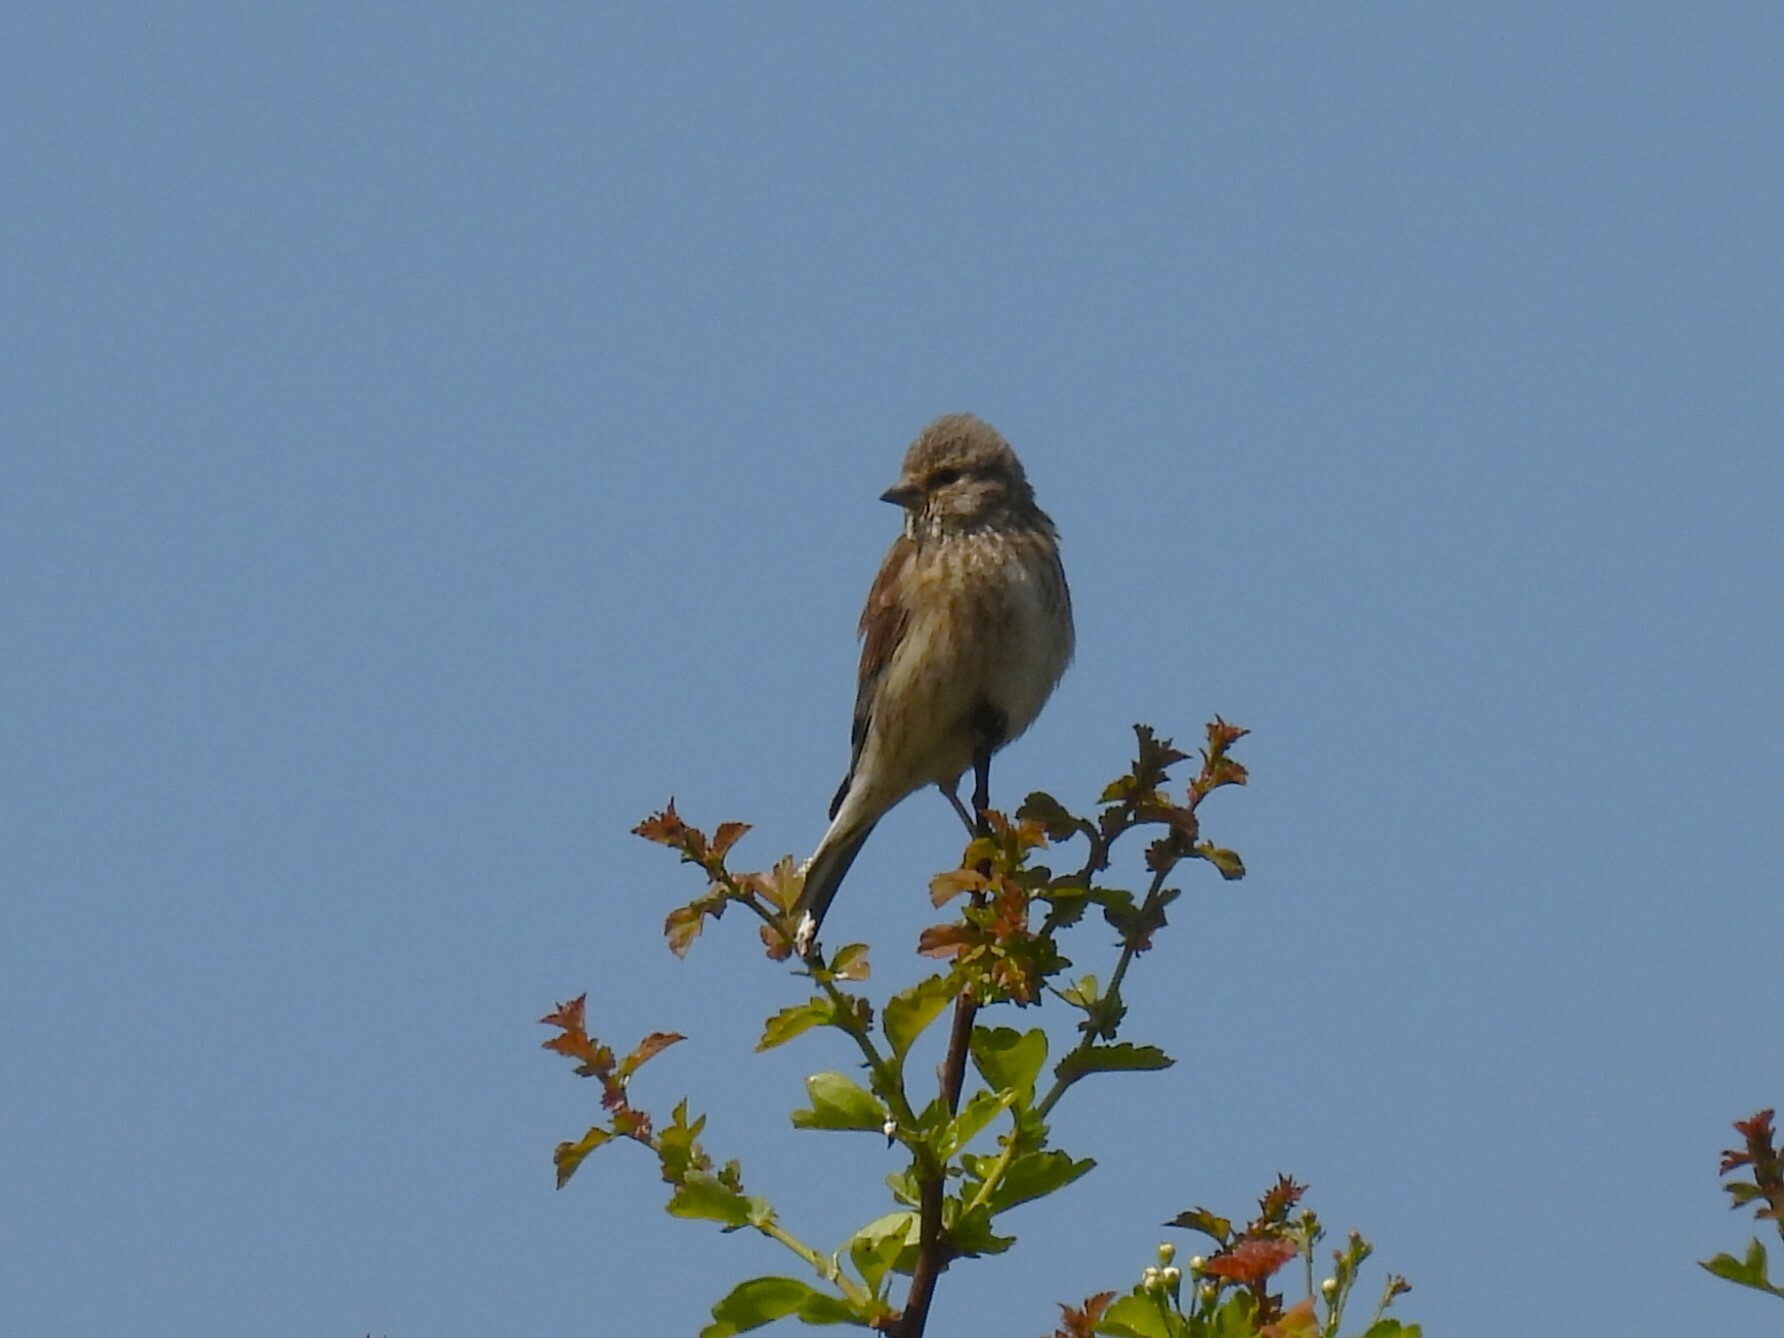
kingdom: Animalia
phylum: Chordata
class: Aves
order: Passeriformes
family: Fringillidae
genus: Linaria
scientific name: Linaria cannabina
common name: Common linnet
